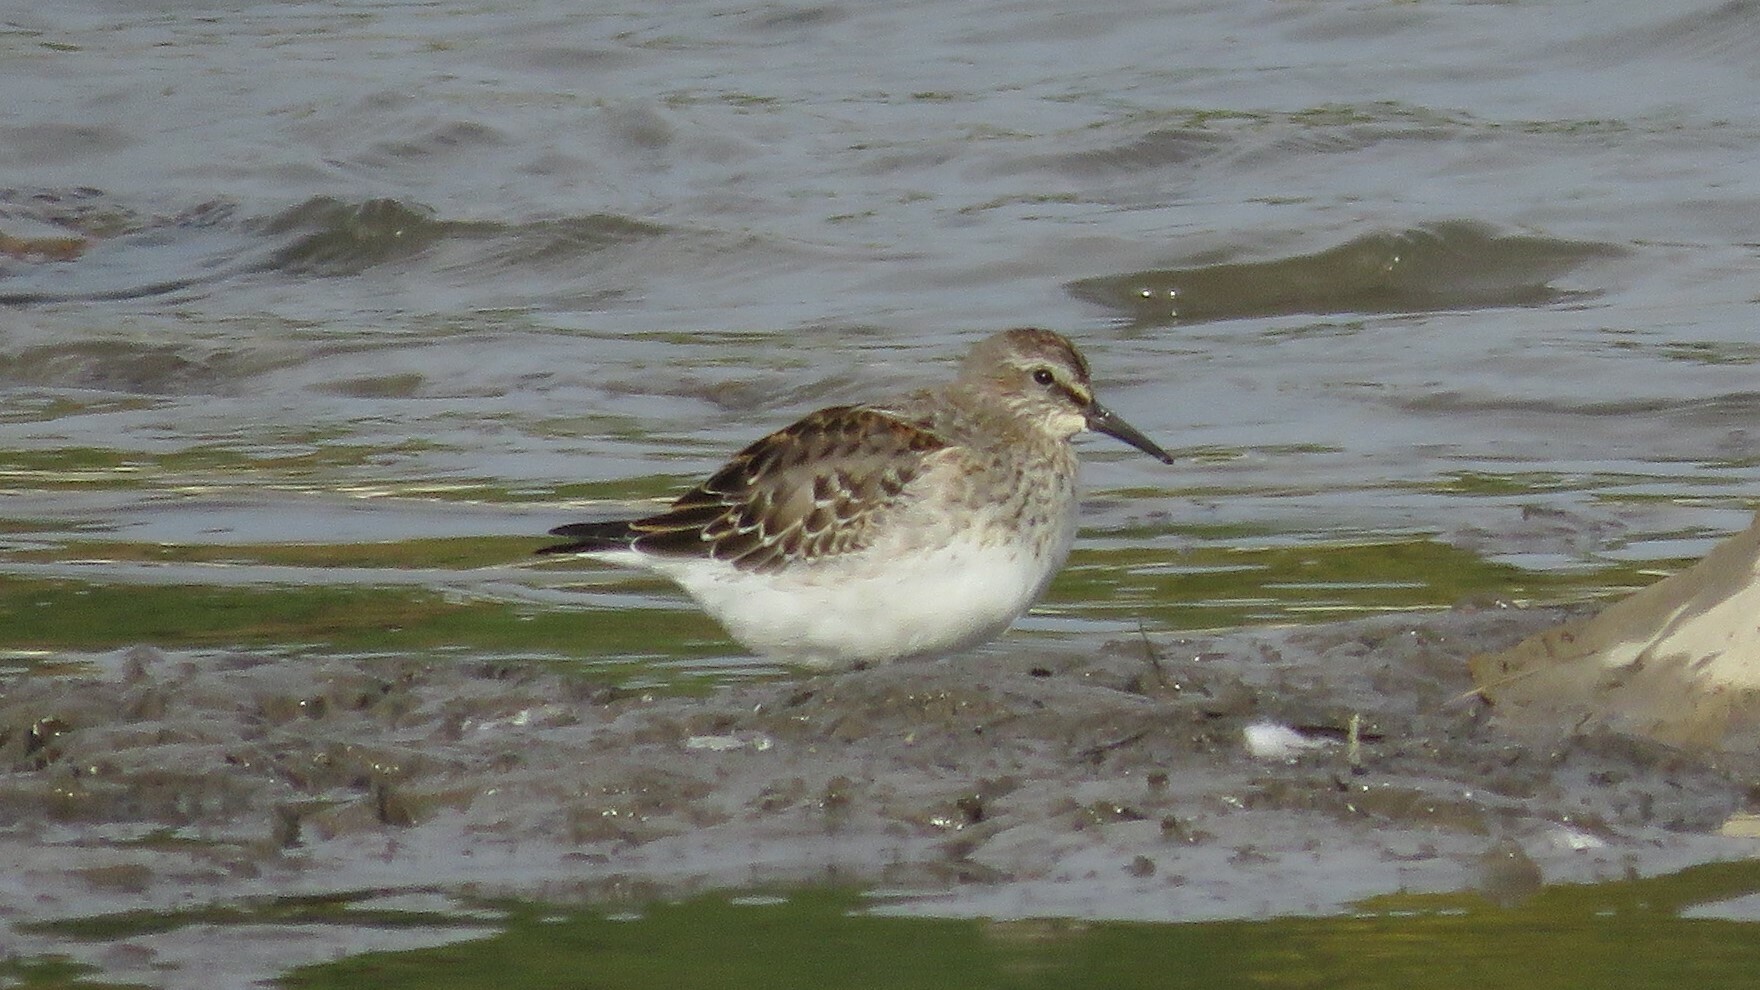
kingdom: Animalia
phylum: Chordata
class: Aves
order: Charadriiformes
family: Scolopacidae
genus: Calidris
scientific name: Calidris fuscicollis
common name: White-rumped sandpiper
